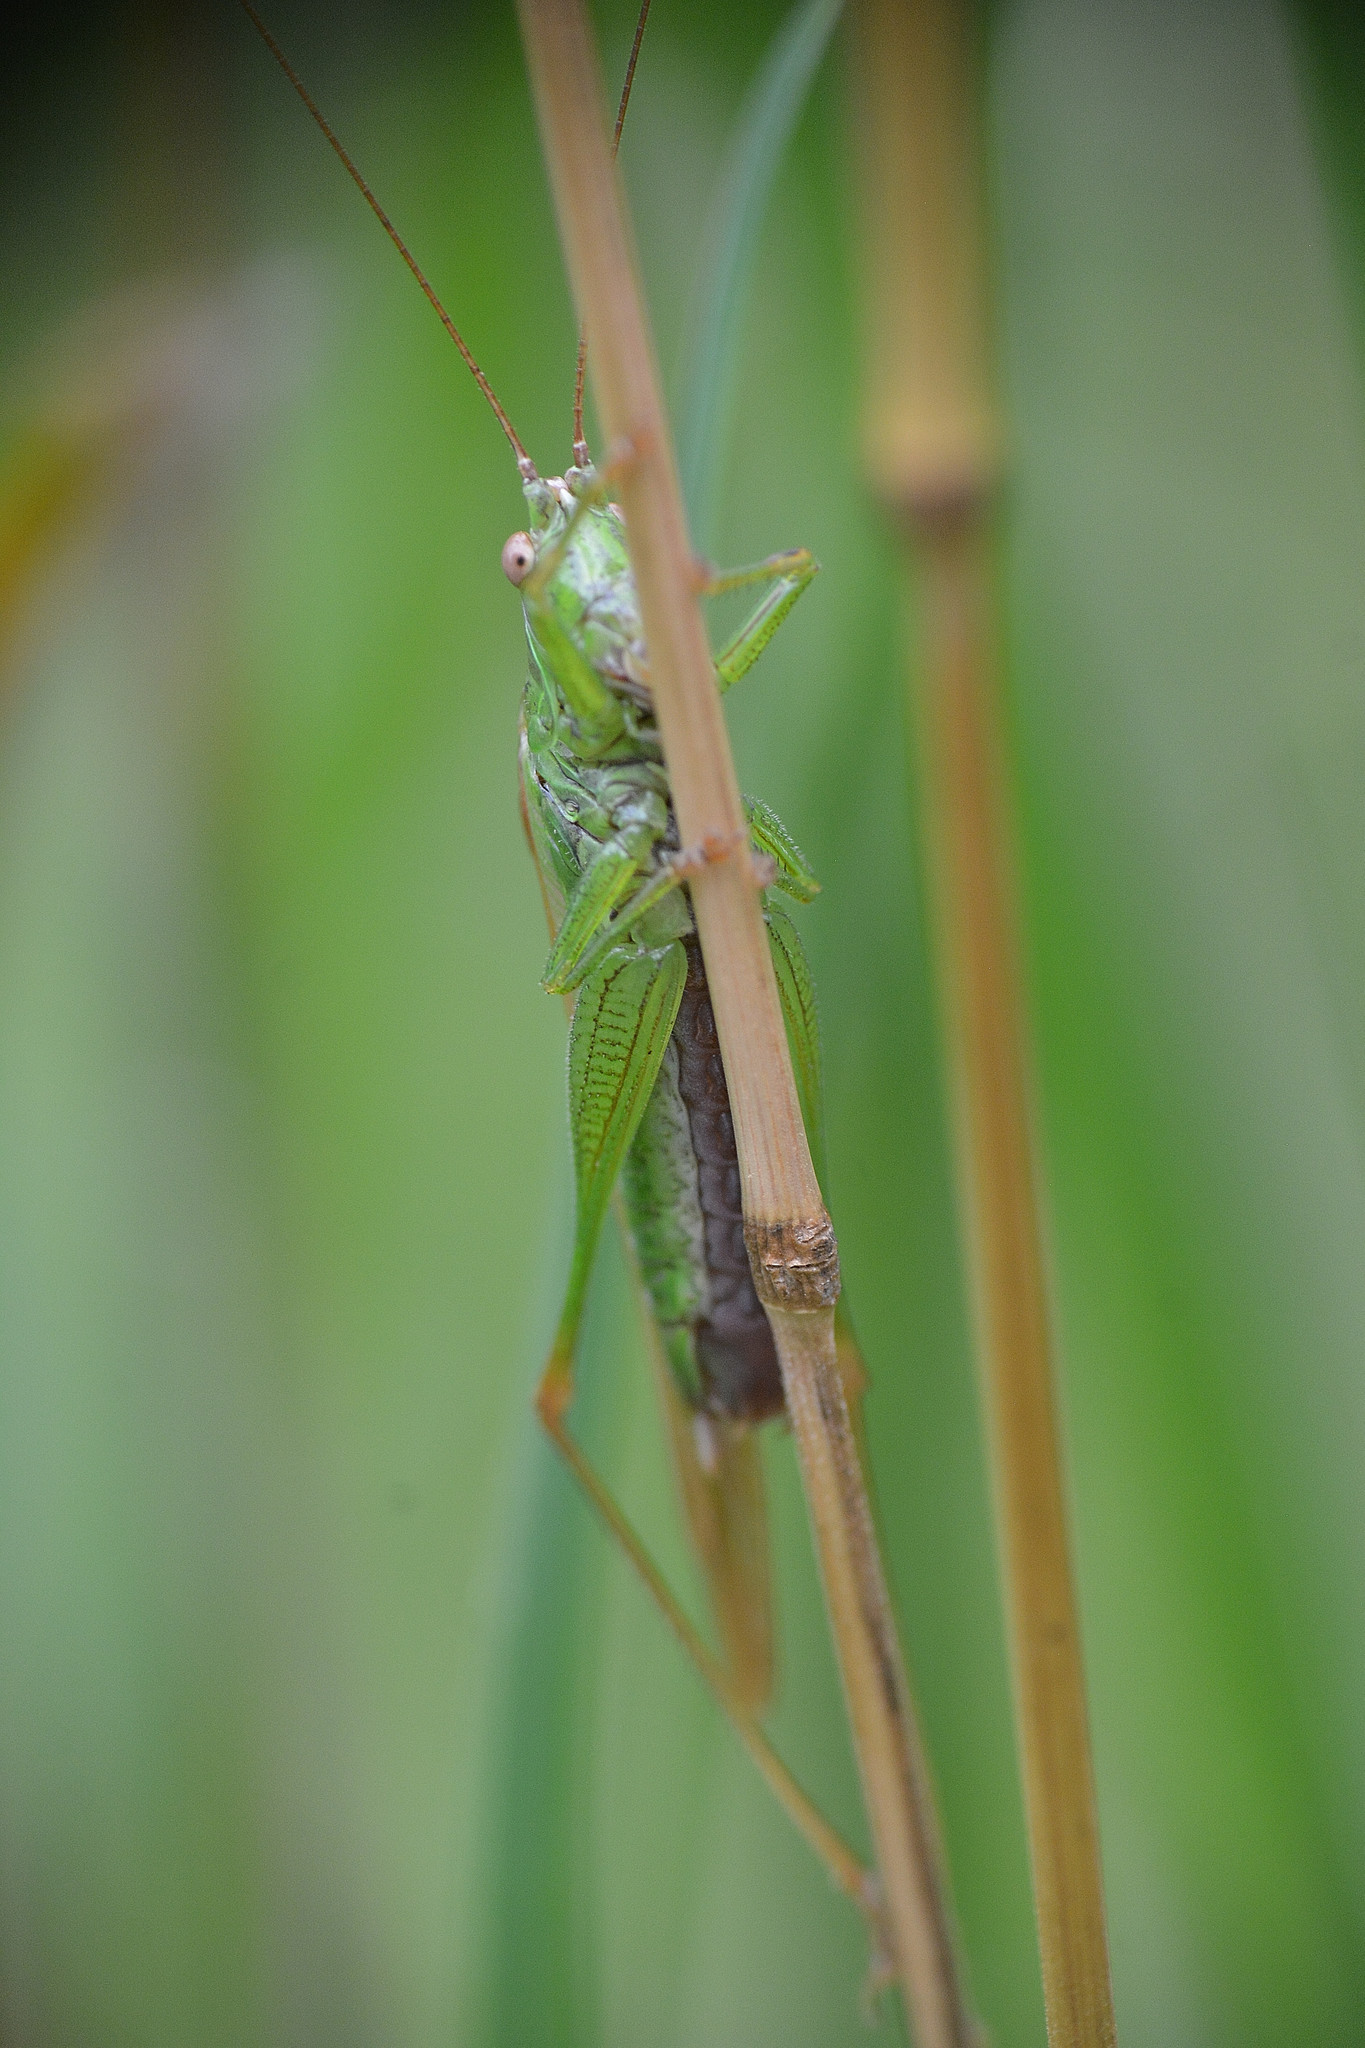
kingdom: Animalia
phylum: Arthropoda
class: Insecta
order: Orthoptera
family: Tettigoniidae
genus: Conocephalus
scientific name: Conocephalus fuscus
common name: Long-winged conehead
